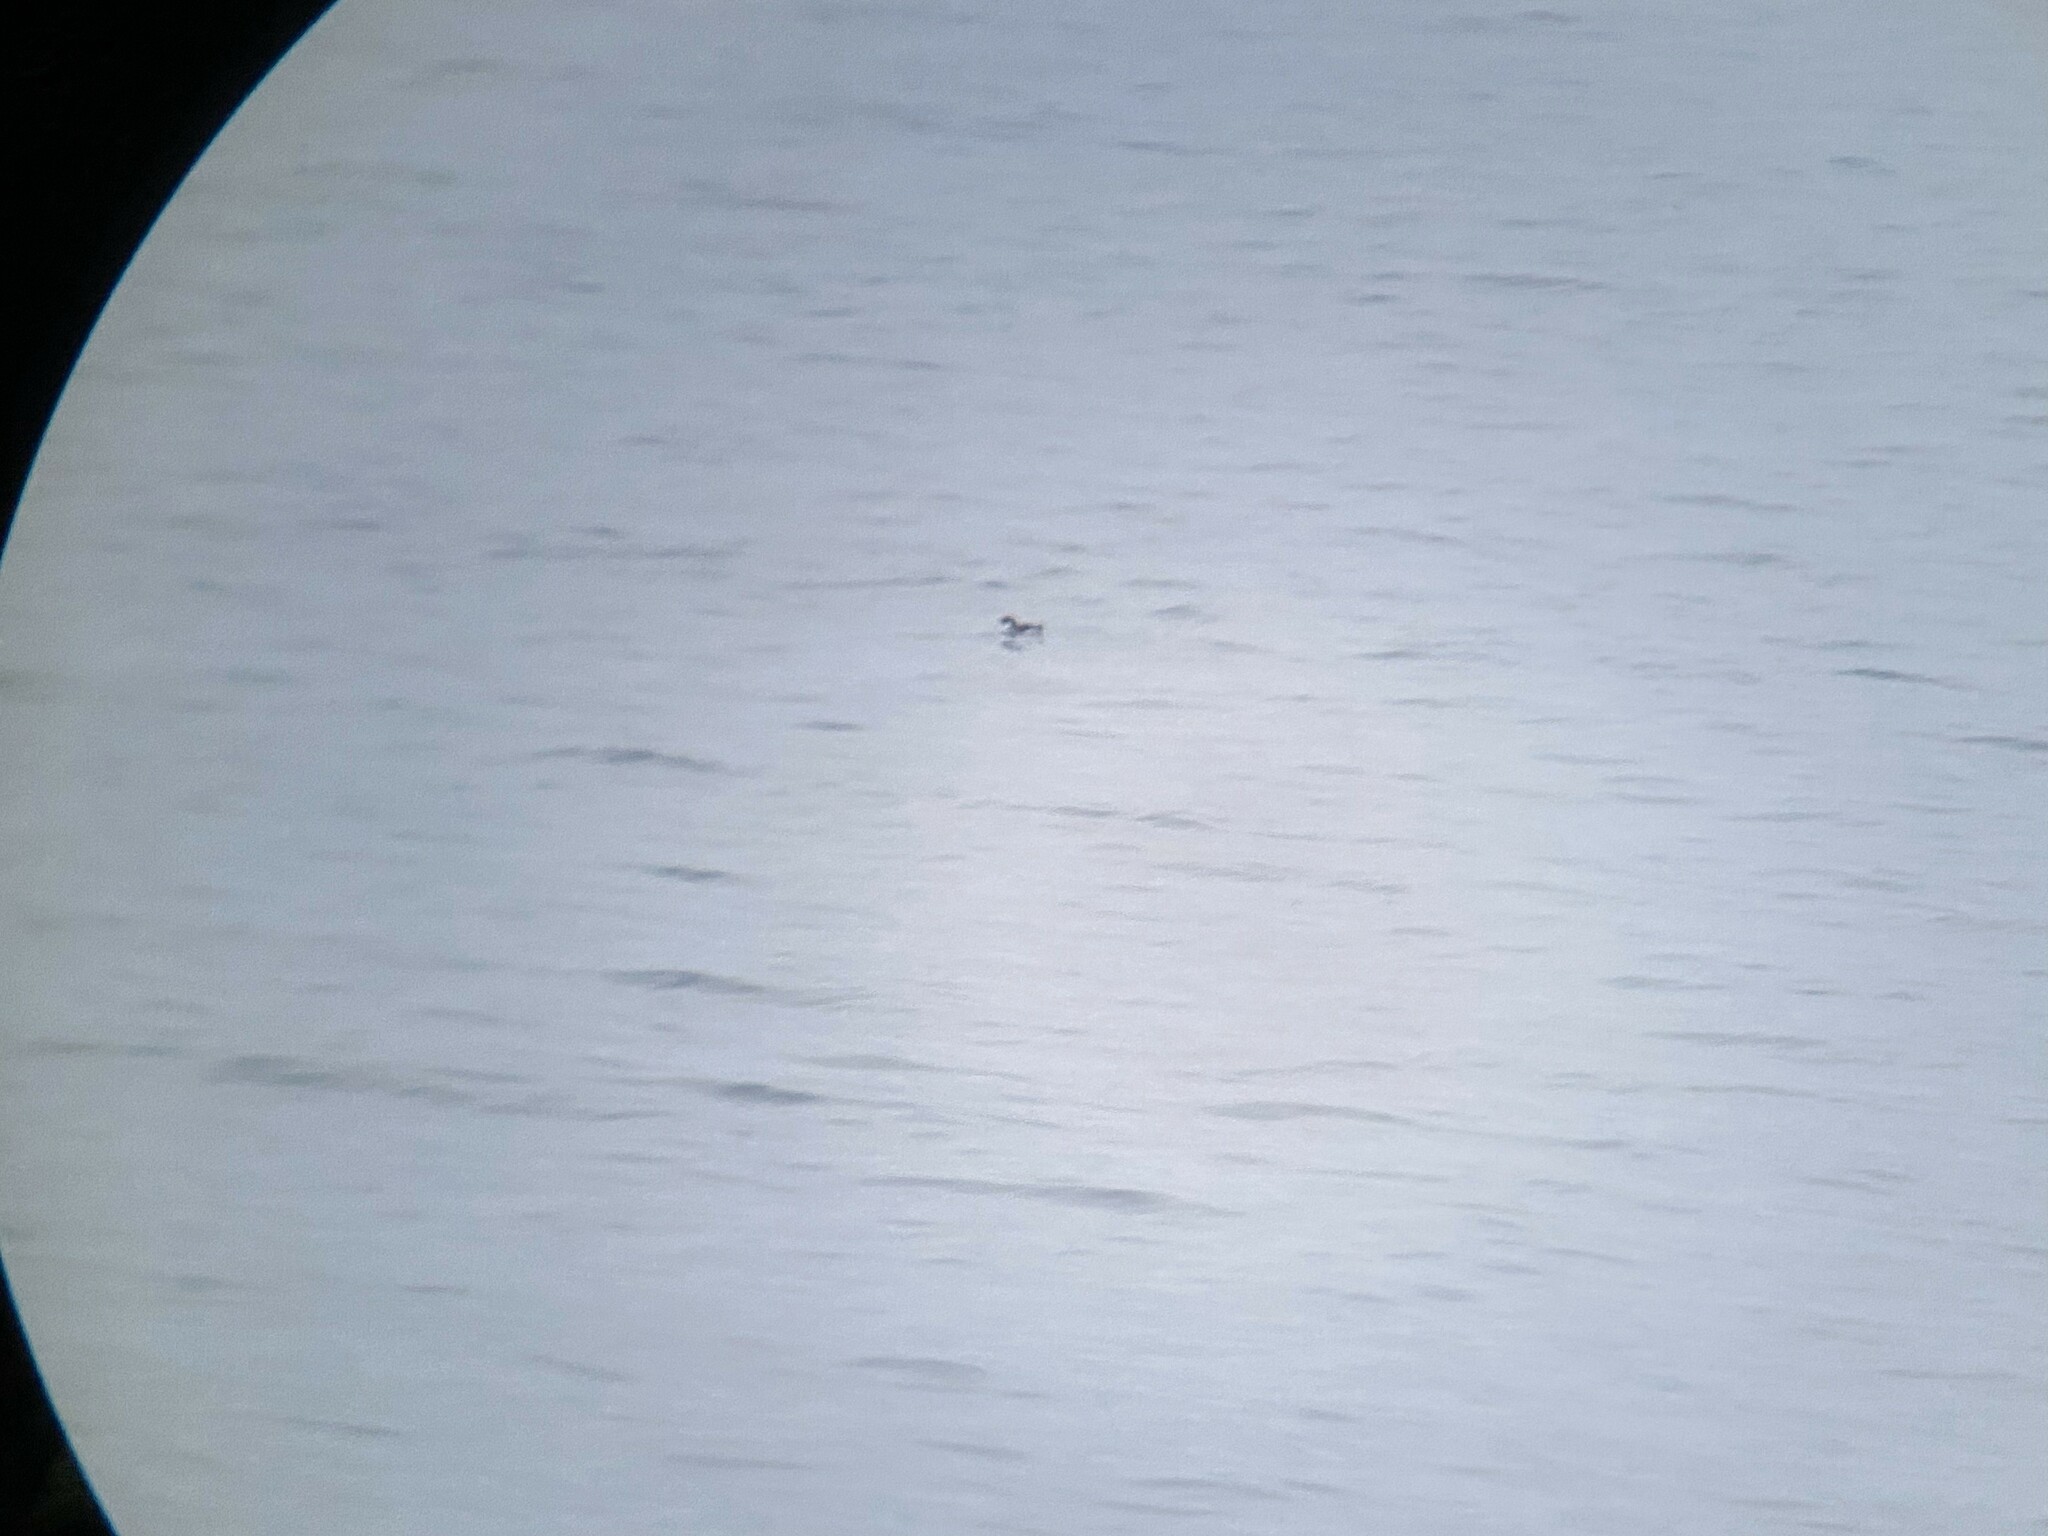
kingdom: Animalia
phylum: Chordata
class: Aves
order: Charadriiformes
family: Alcidae
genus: Synthliboramphus
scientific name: Synthliboramphus antiquus
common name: Ancient murrelet
